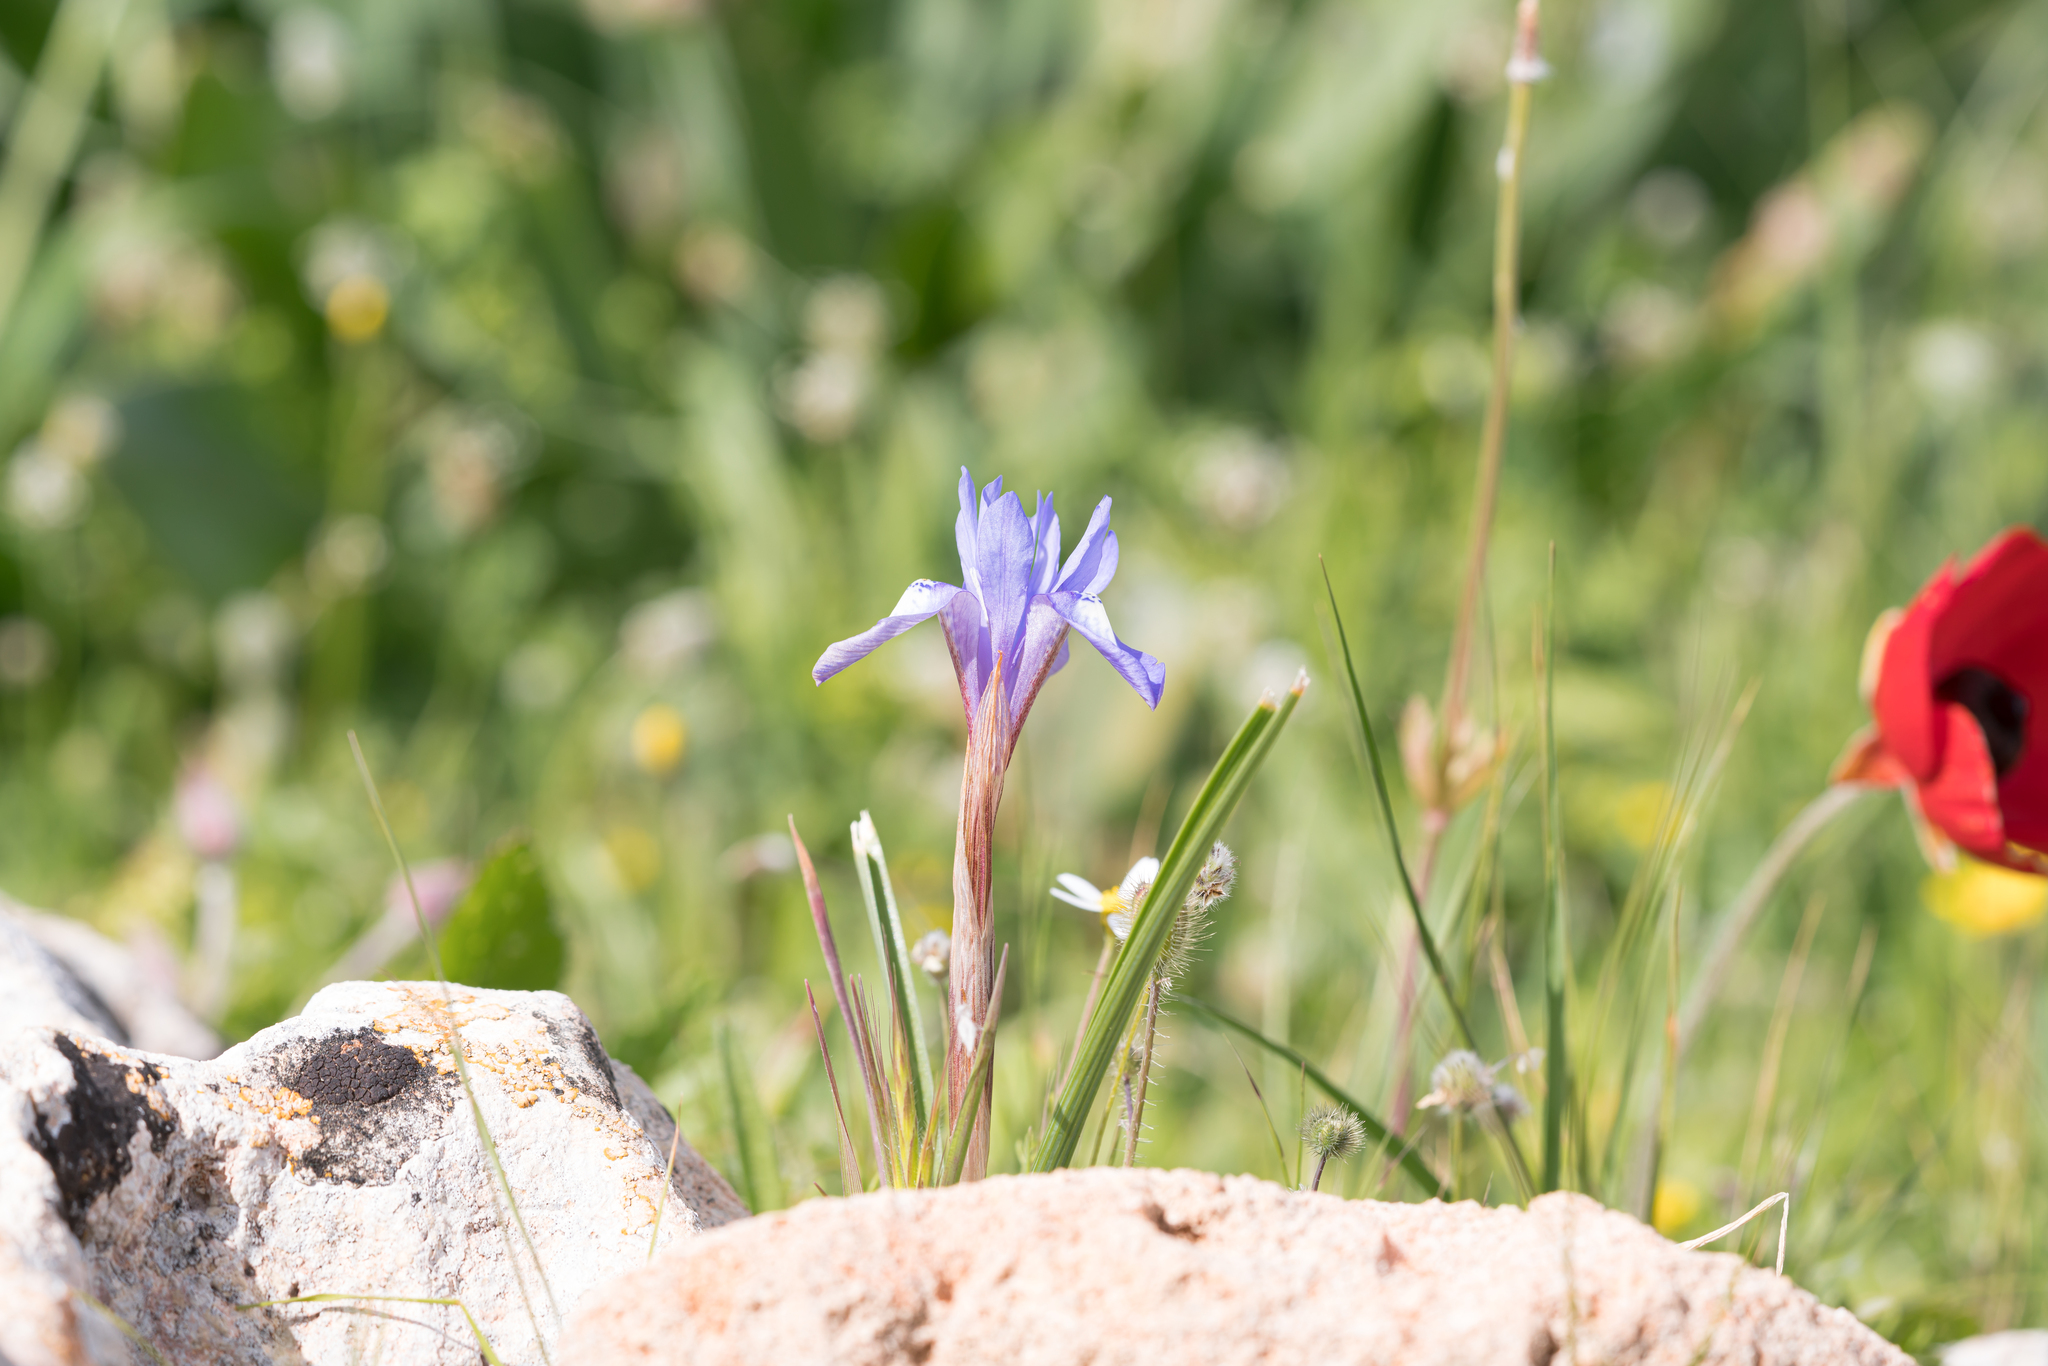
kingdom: Plantae
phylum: Tracheophyta
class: Liliopsida
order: Asparagales
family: Iridaceae
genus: Moraea
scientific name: Moraea sisyrinchium
